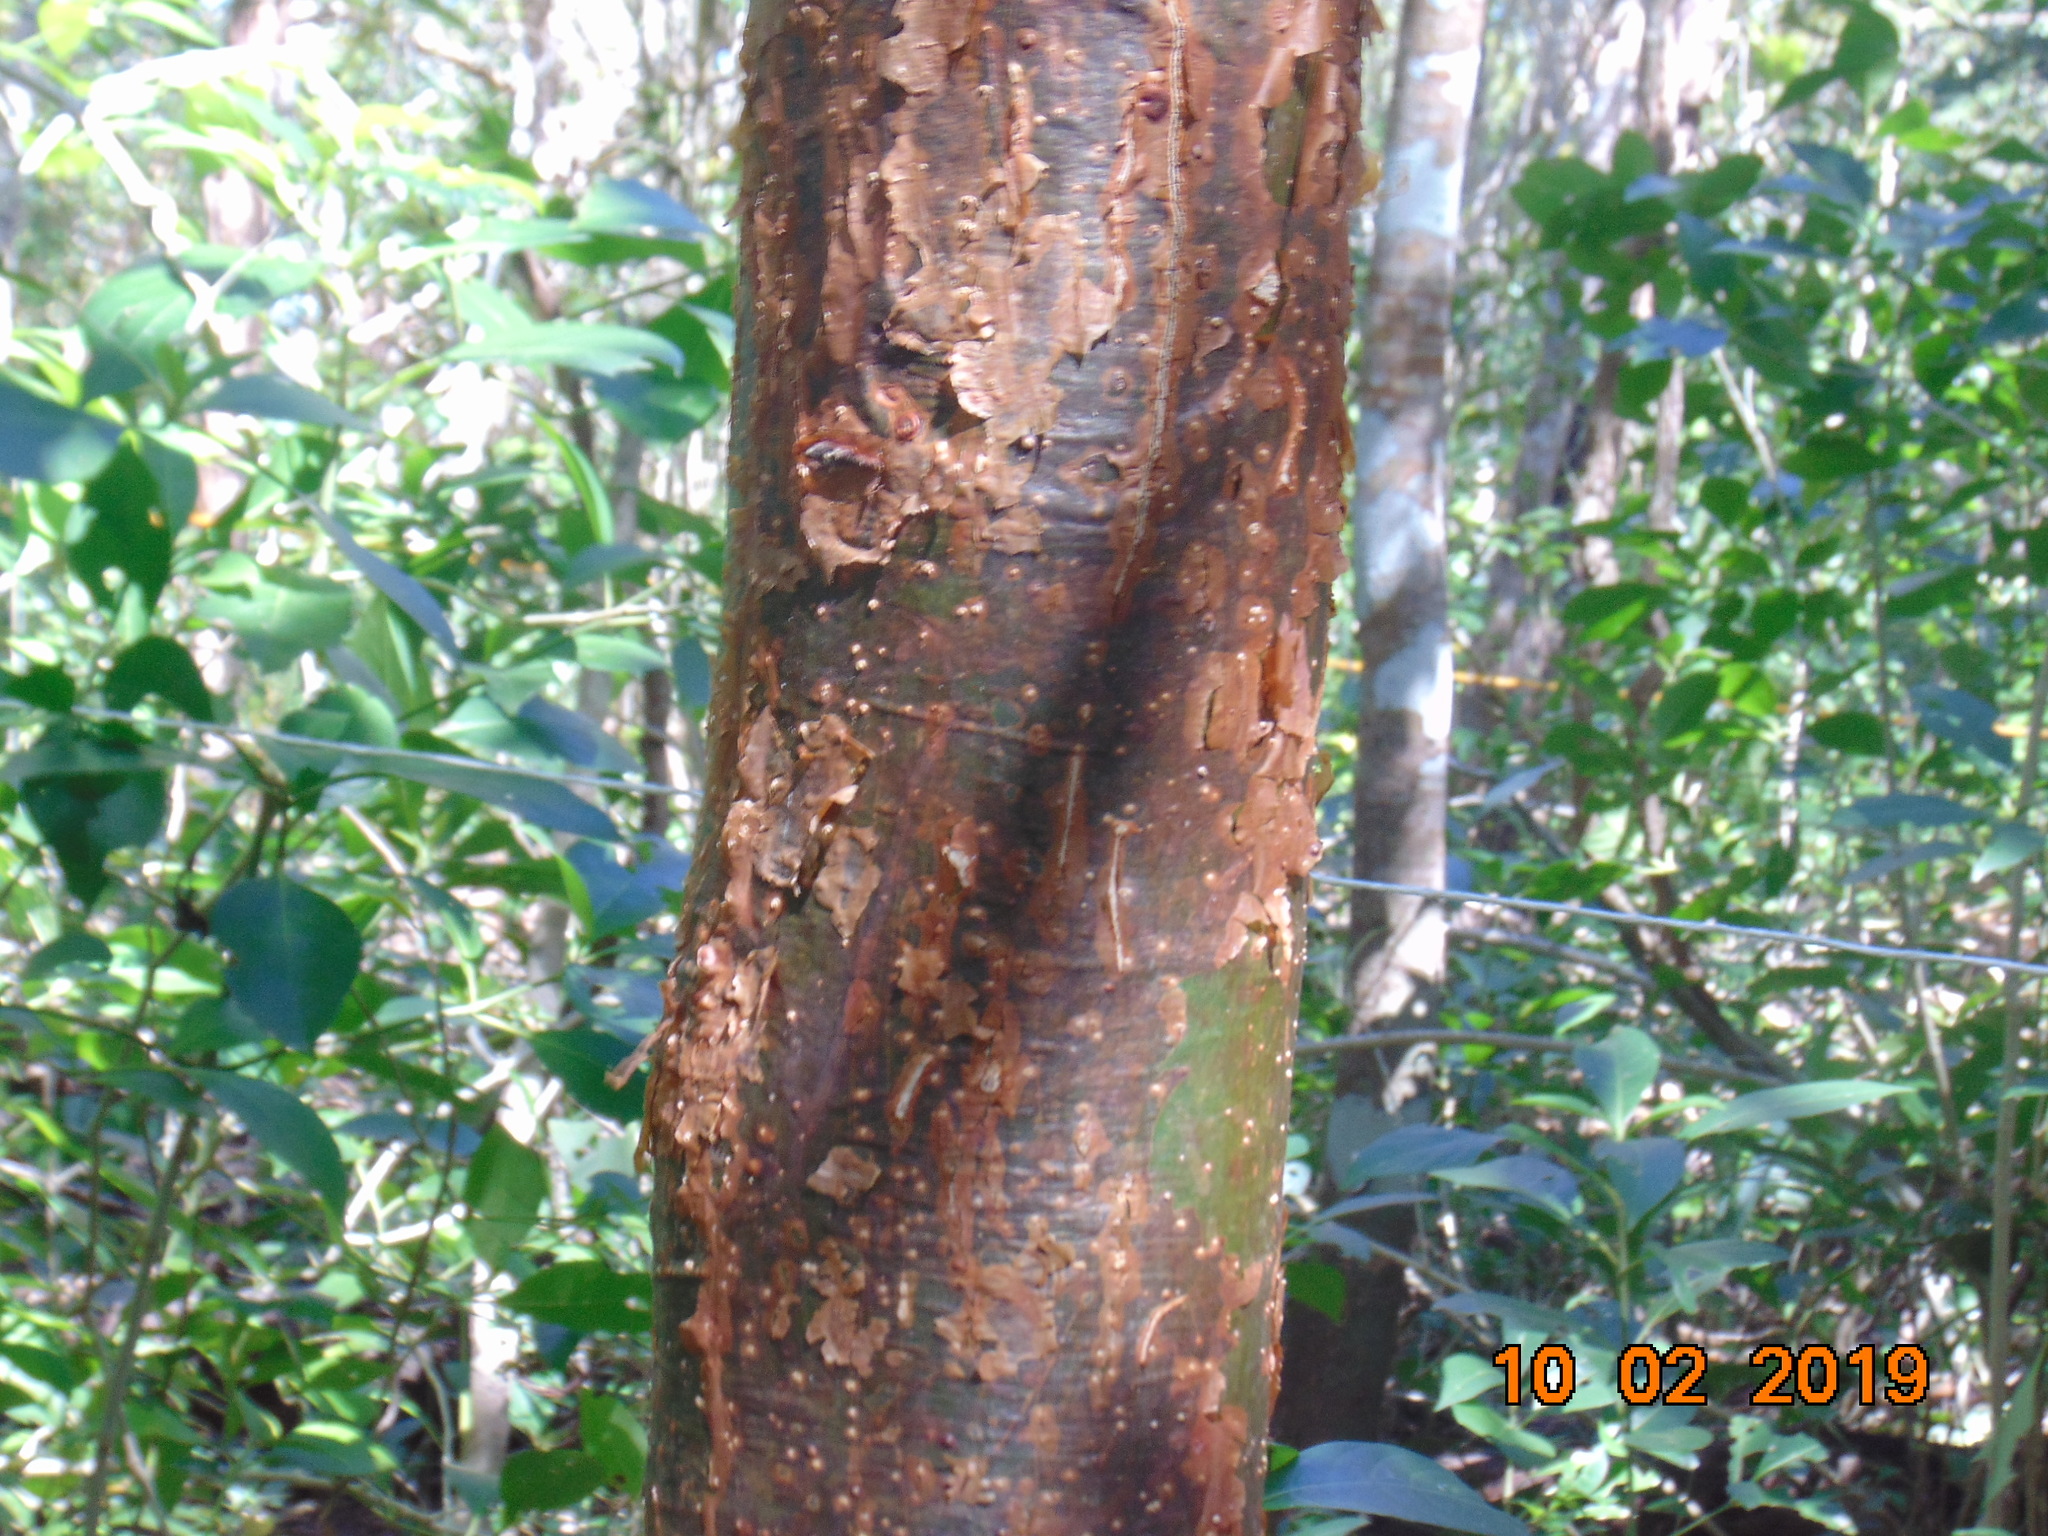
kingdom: Plantae
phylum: Tracheophyta
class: Magnoliopsida
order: Sapindales
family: Burseraceae
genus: Bursera
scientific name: Bursera simaruba
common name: Turpentine tree
